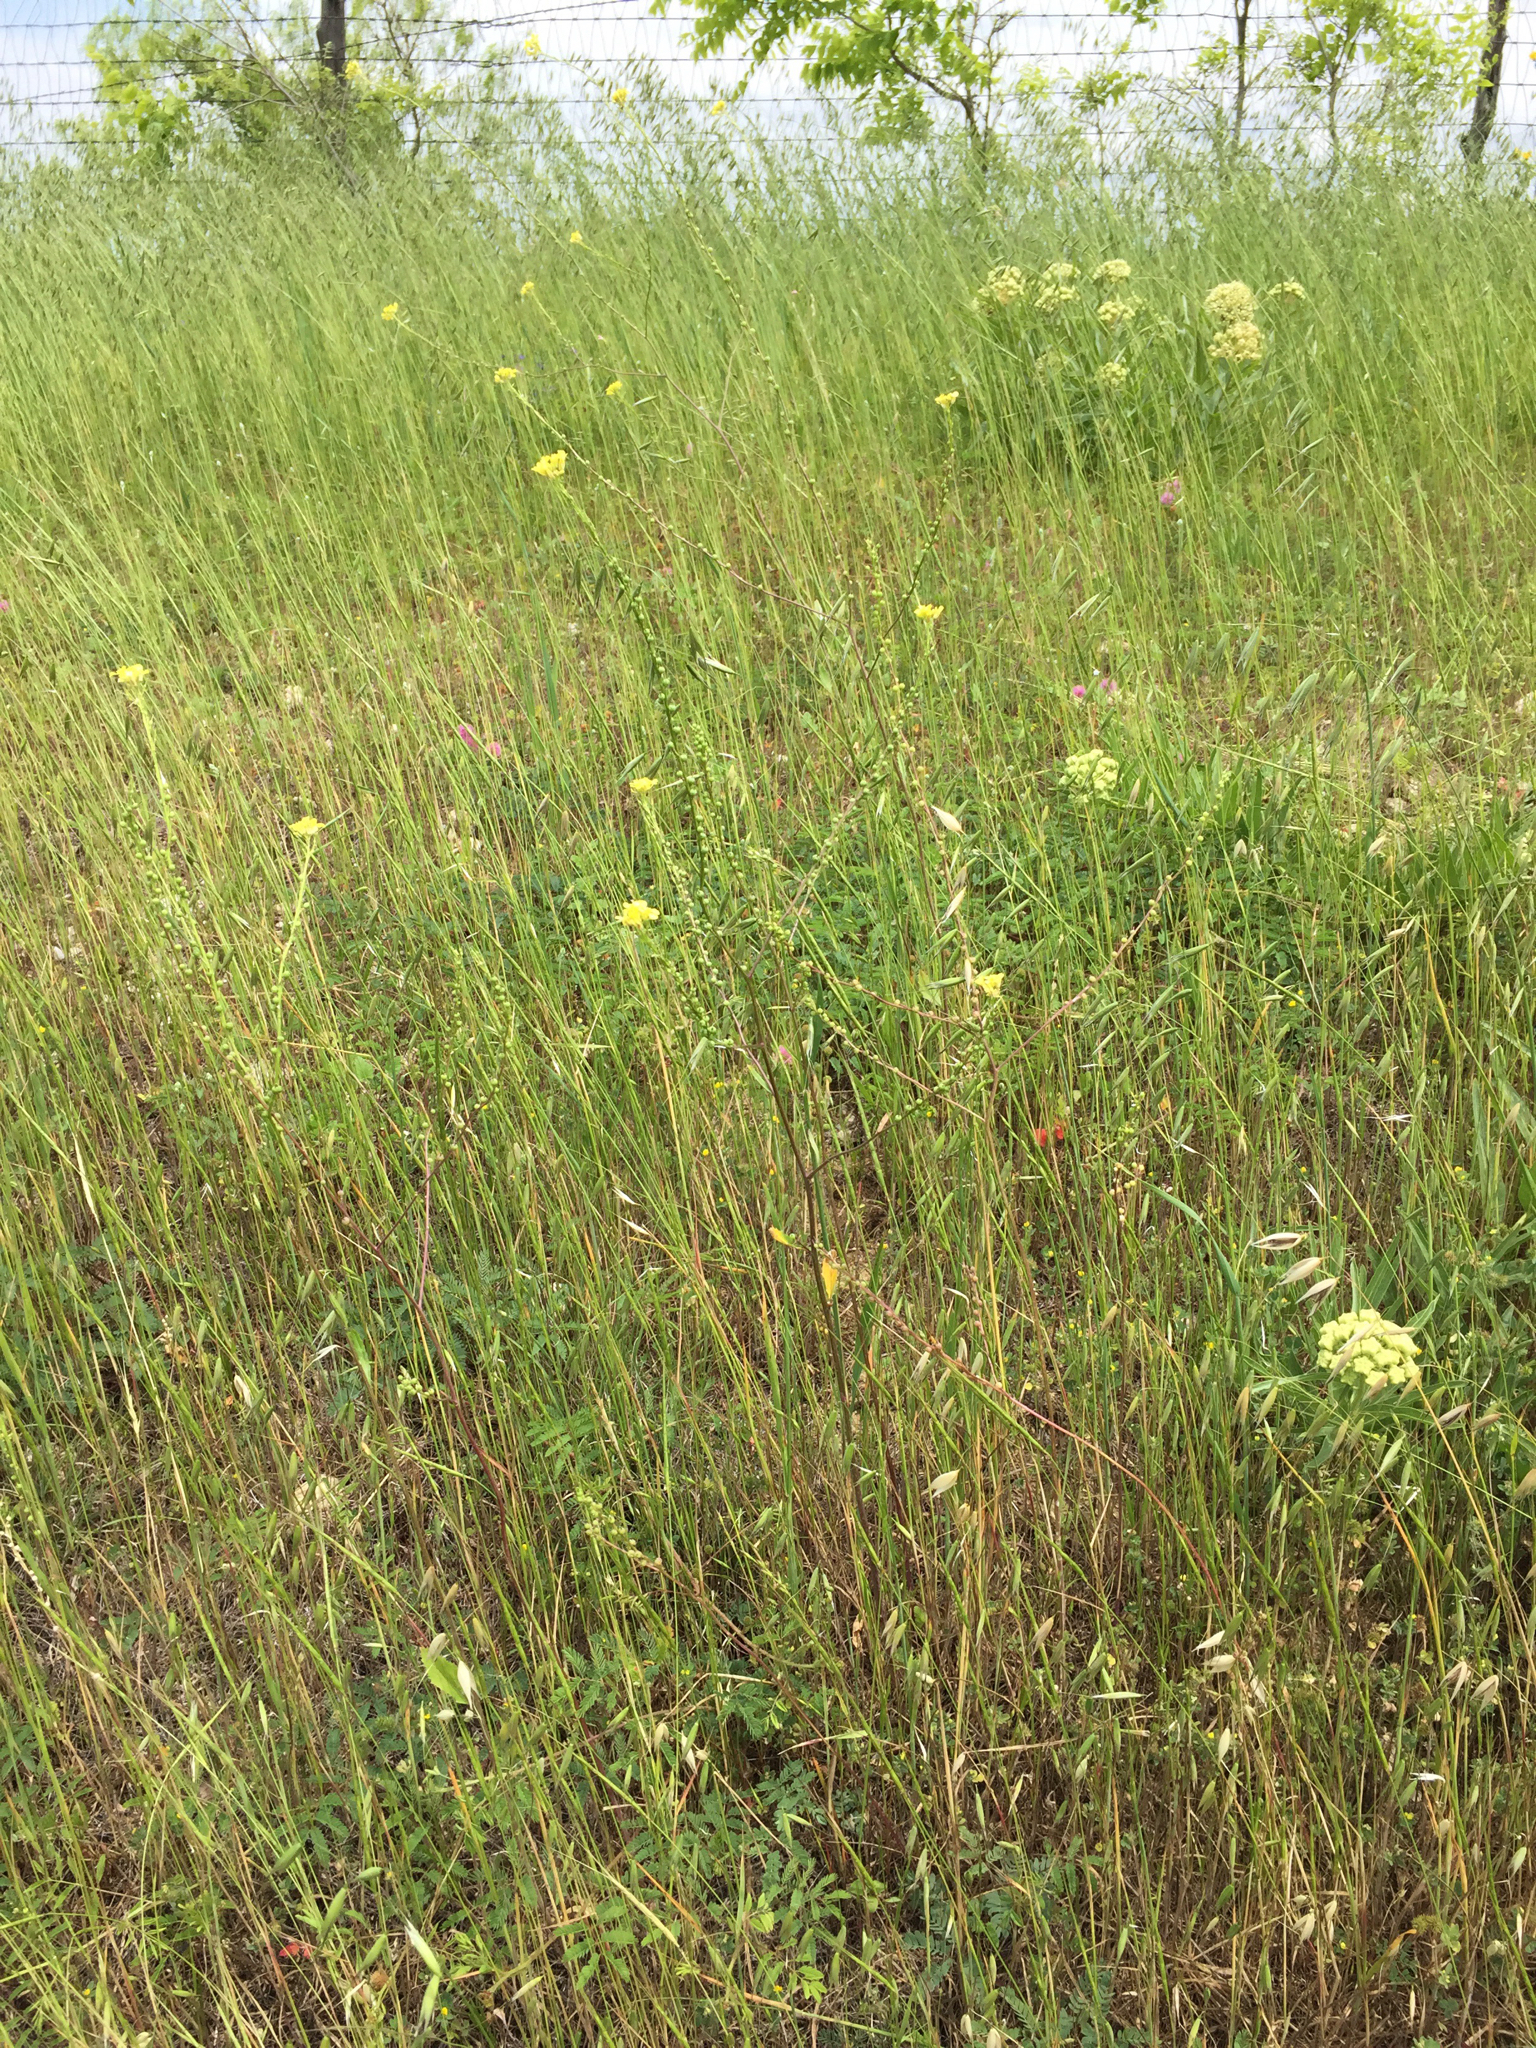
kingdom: Plantae
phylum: Tracheophyta
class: Magnoliopsida
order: Brassicales
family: Brassicaceae
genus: Rapistrum
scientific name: Rapistrum rugosum
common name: Annual bastardcabbage
